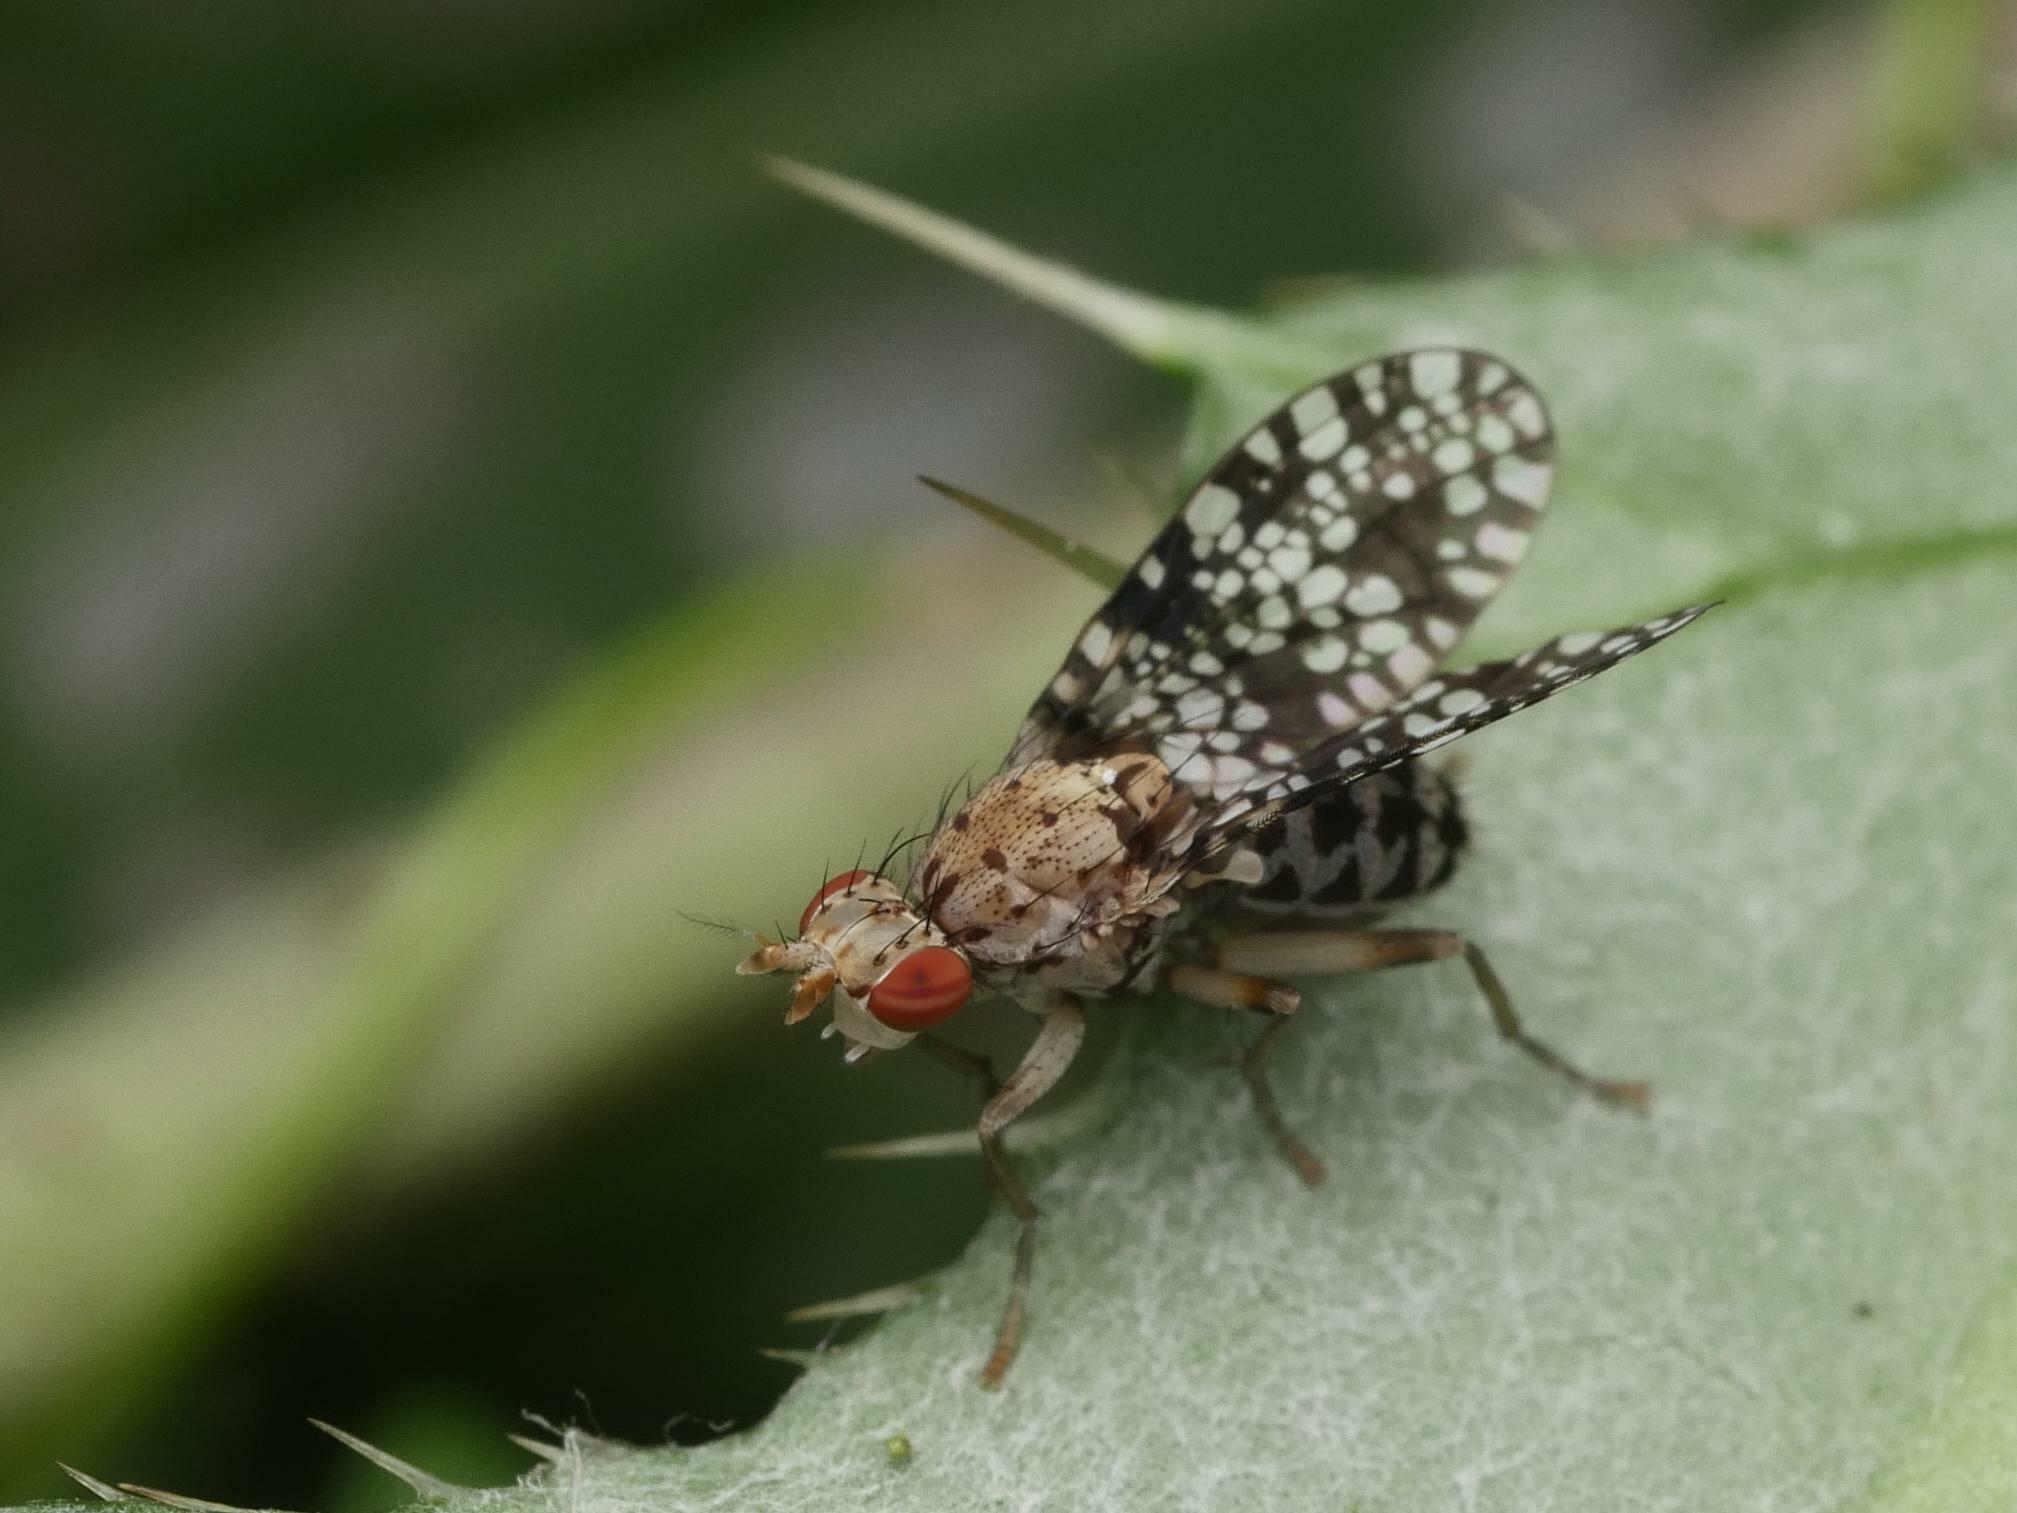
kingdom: Animalia
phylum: Arthropoda
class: Insecta
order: Diptera
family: Sciomyzidae
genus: Trypetoptera
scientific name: Trypetoptera punctulata
